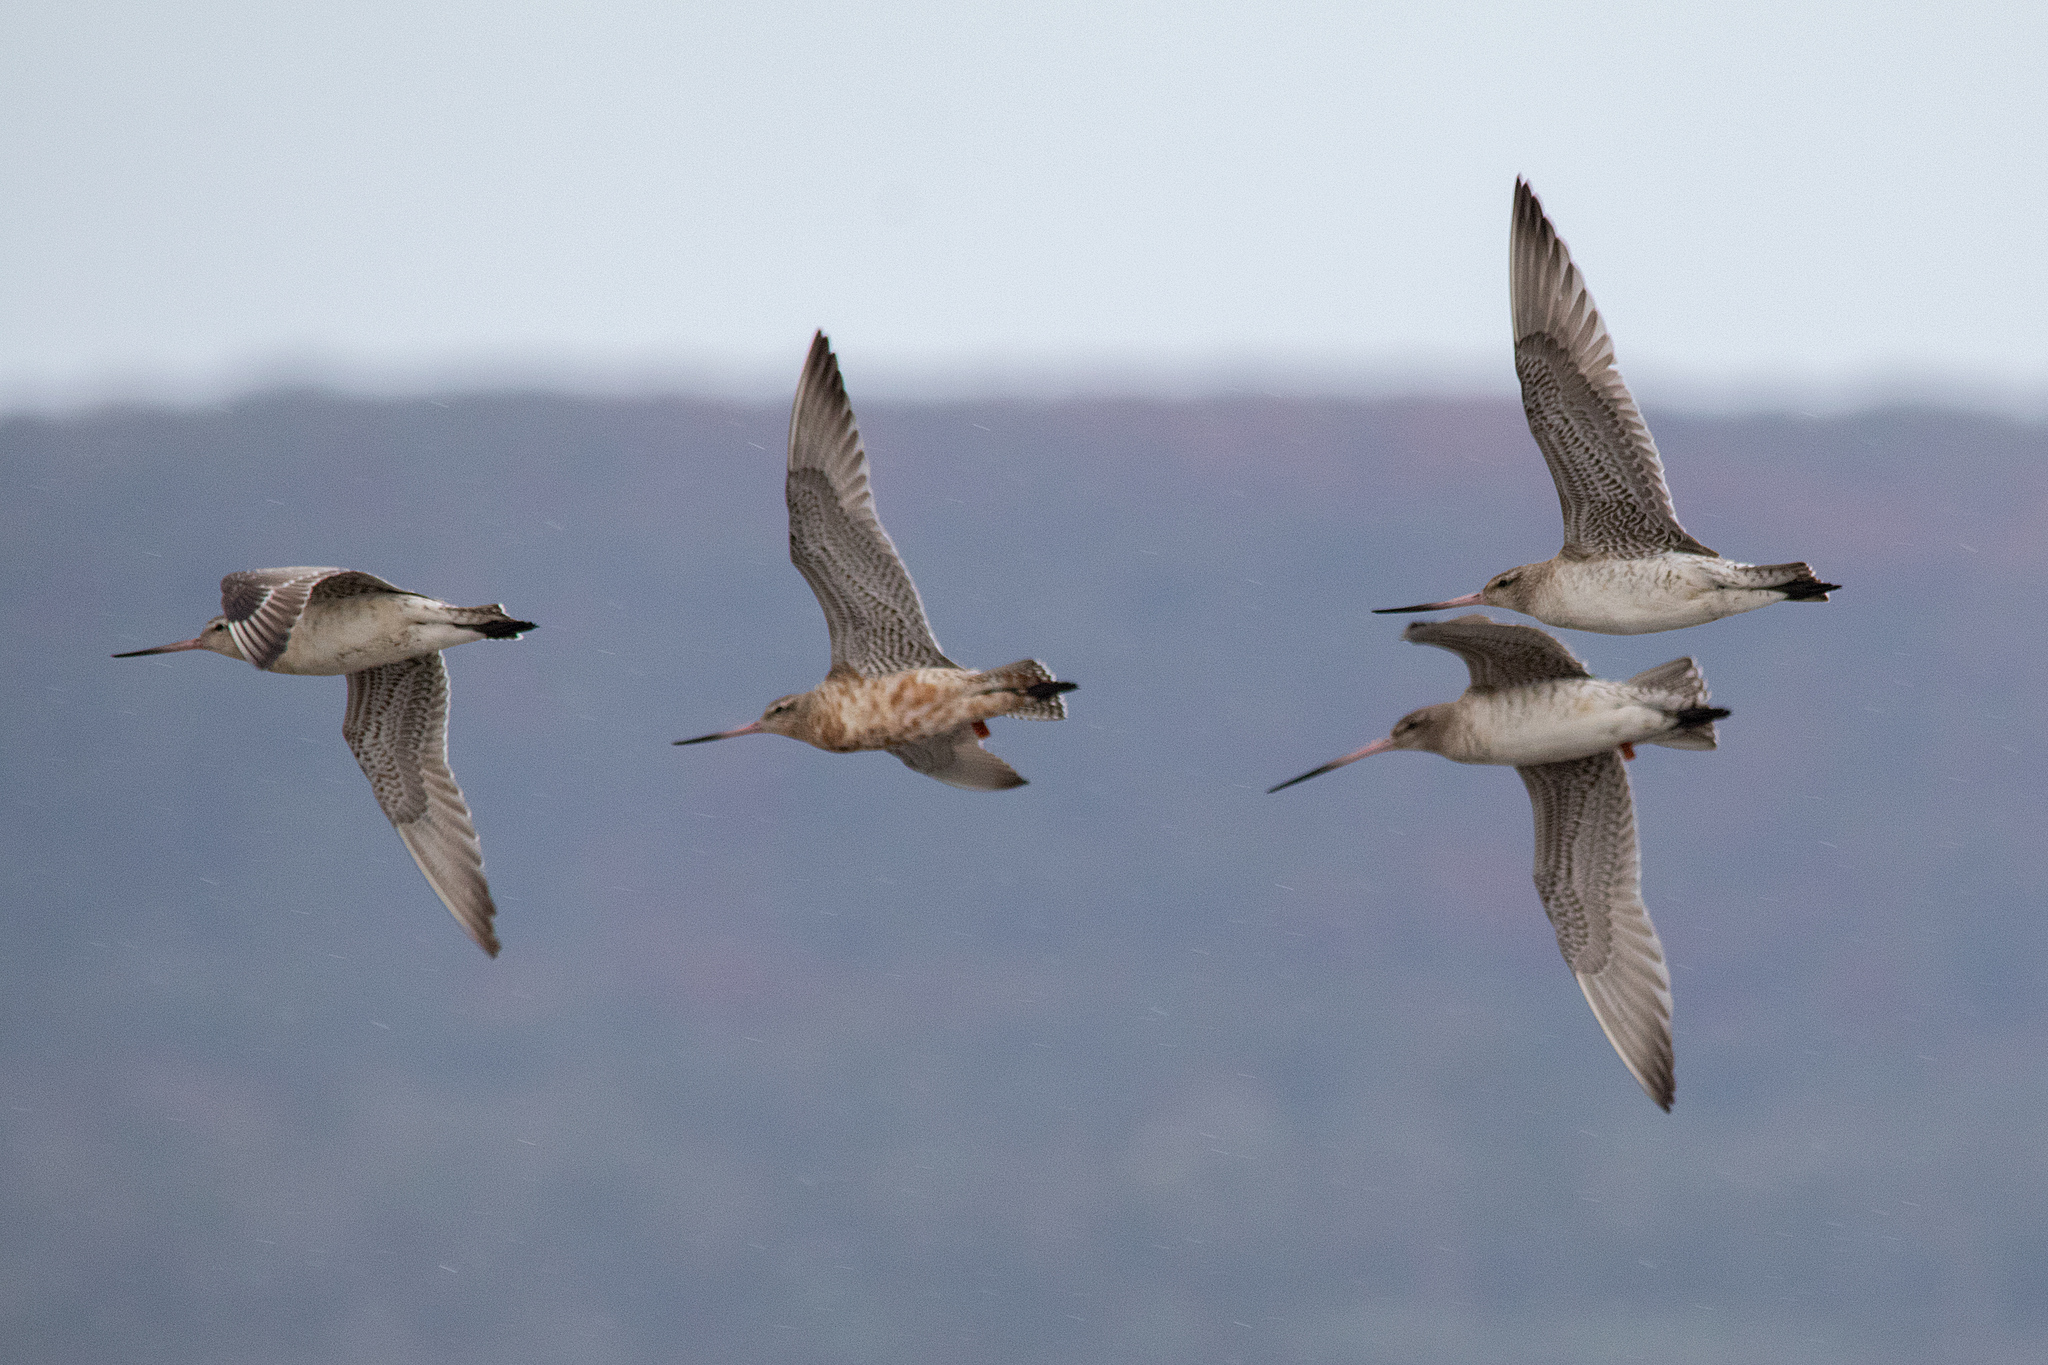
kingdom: Animalia
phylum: Chordata
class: Aves
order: Charadriiformes
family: Scolopacidae
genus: Limosa
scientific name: Limosa lapponica
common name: Bar-tailed godwit
